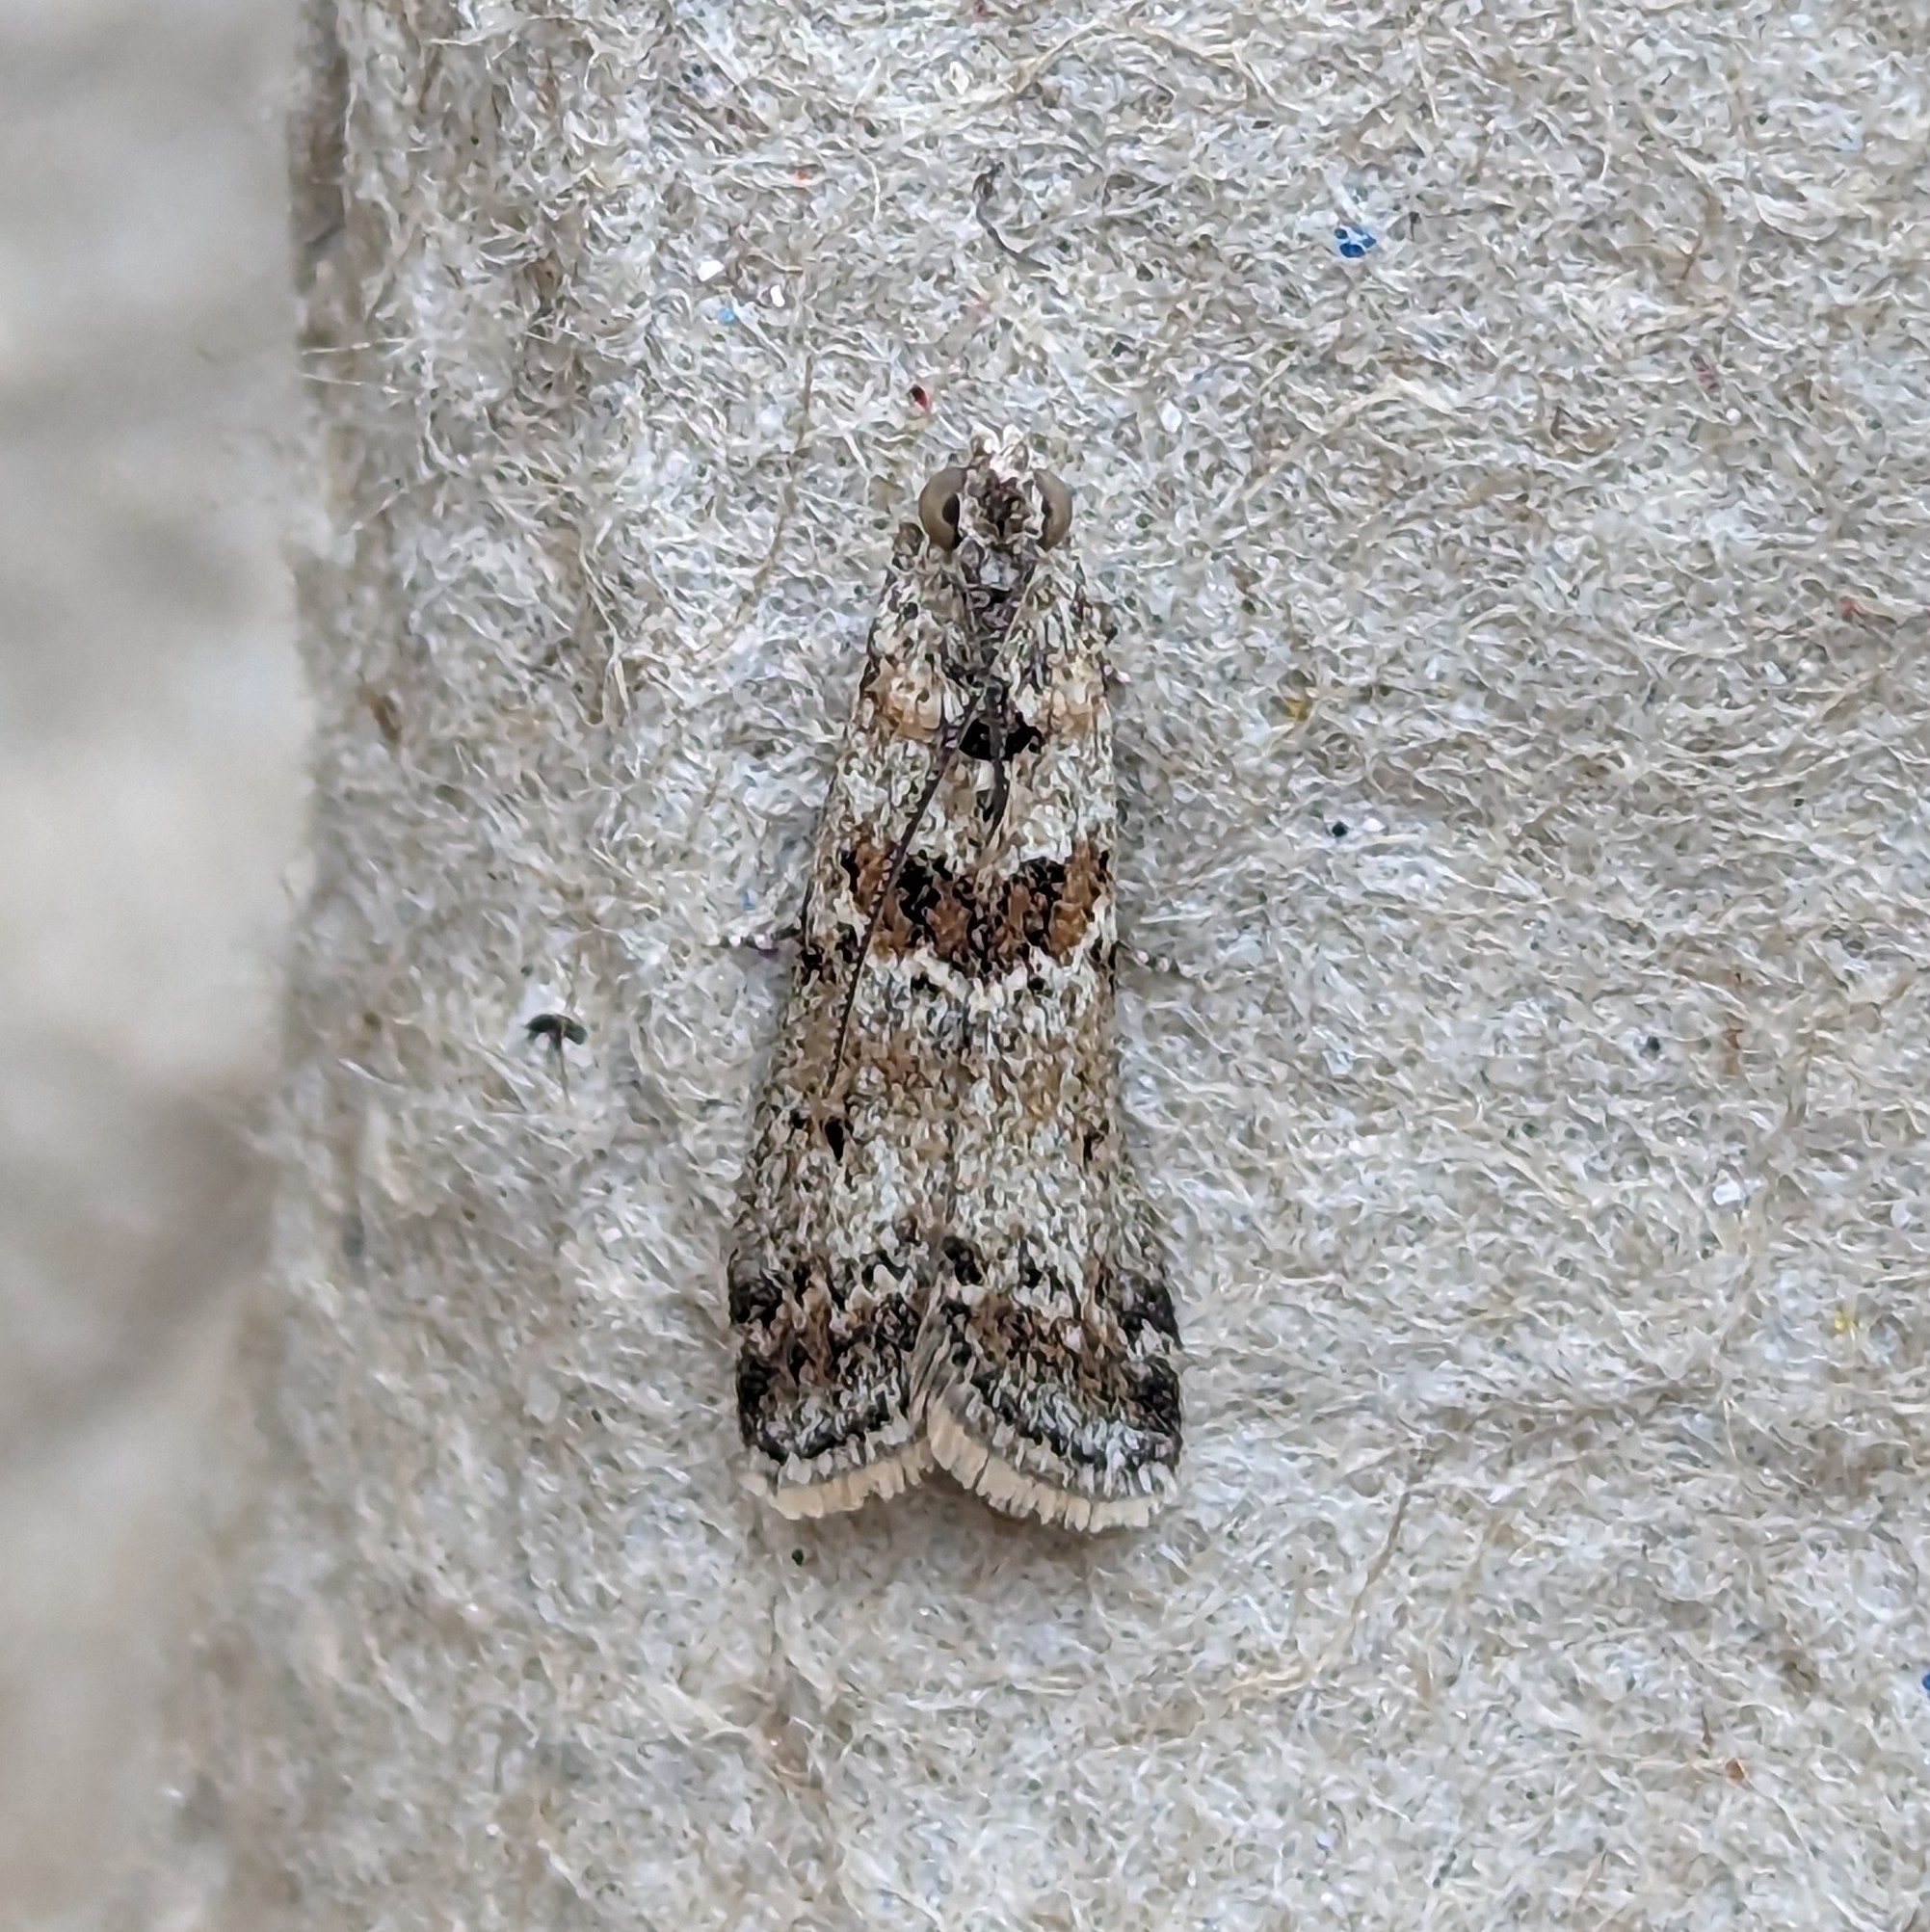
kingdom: Animalia
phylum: Arthropoda
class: Insecta
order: Lepidoptera
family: Pyralidae
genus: Ancylosis
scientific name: Ancylosis undulatella
